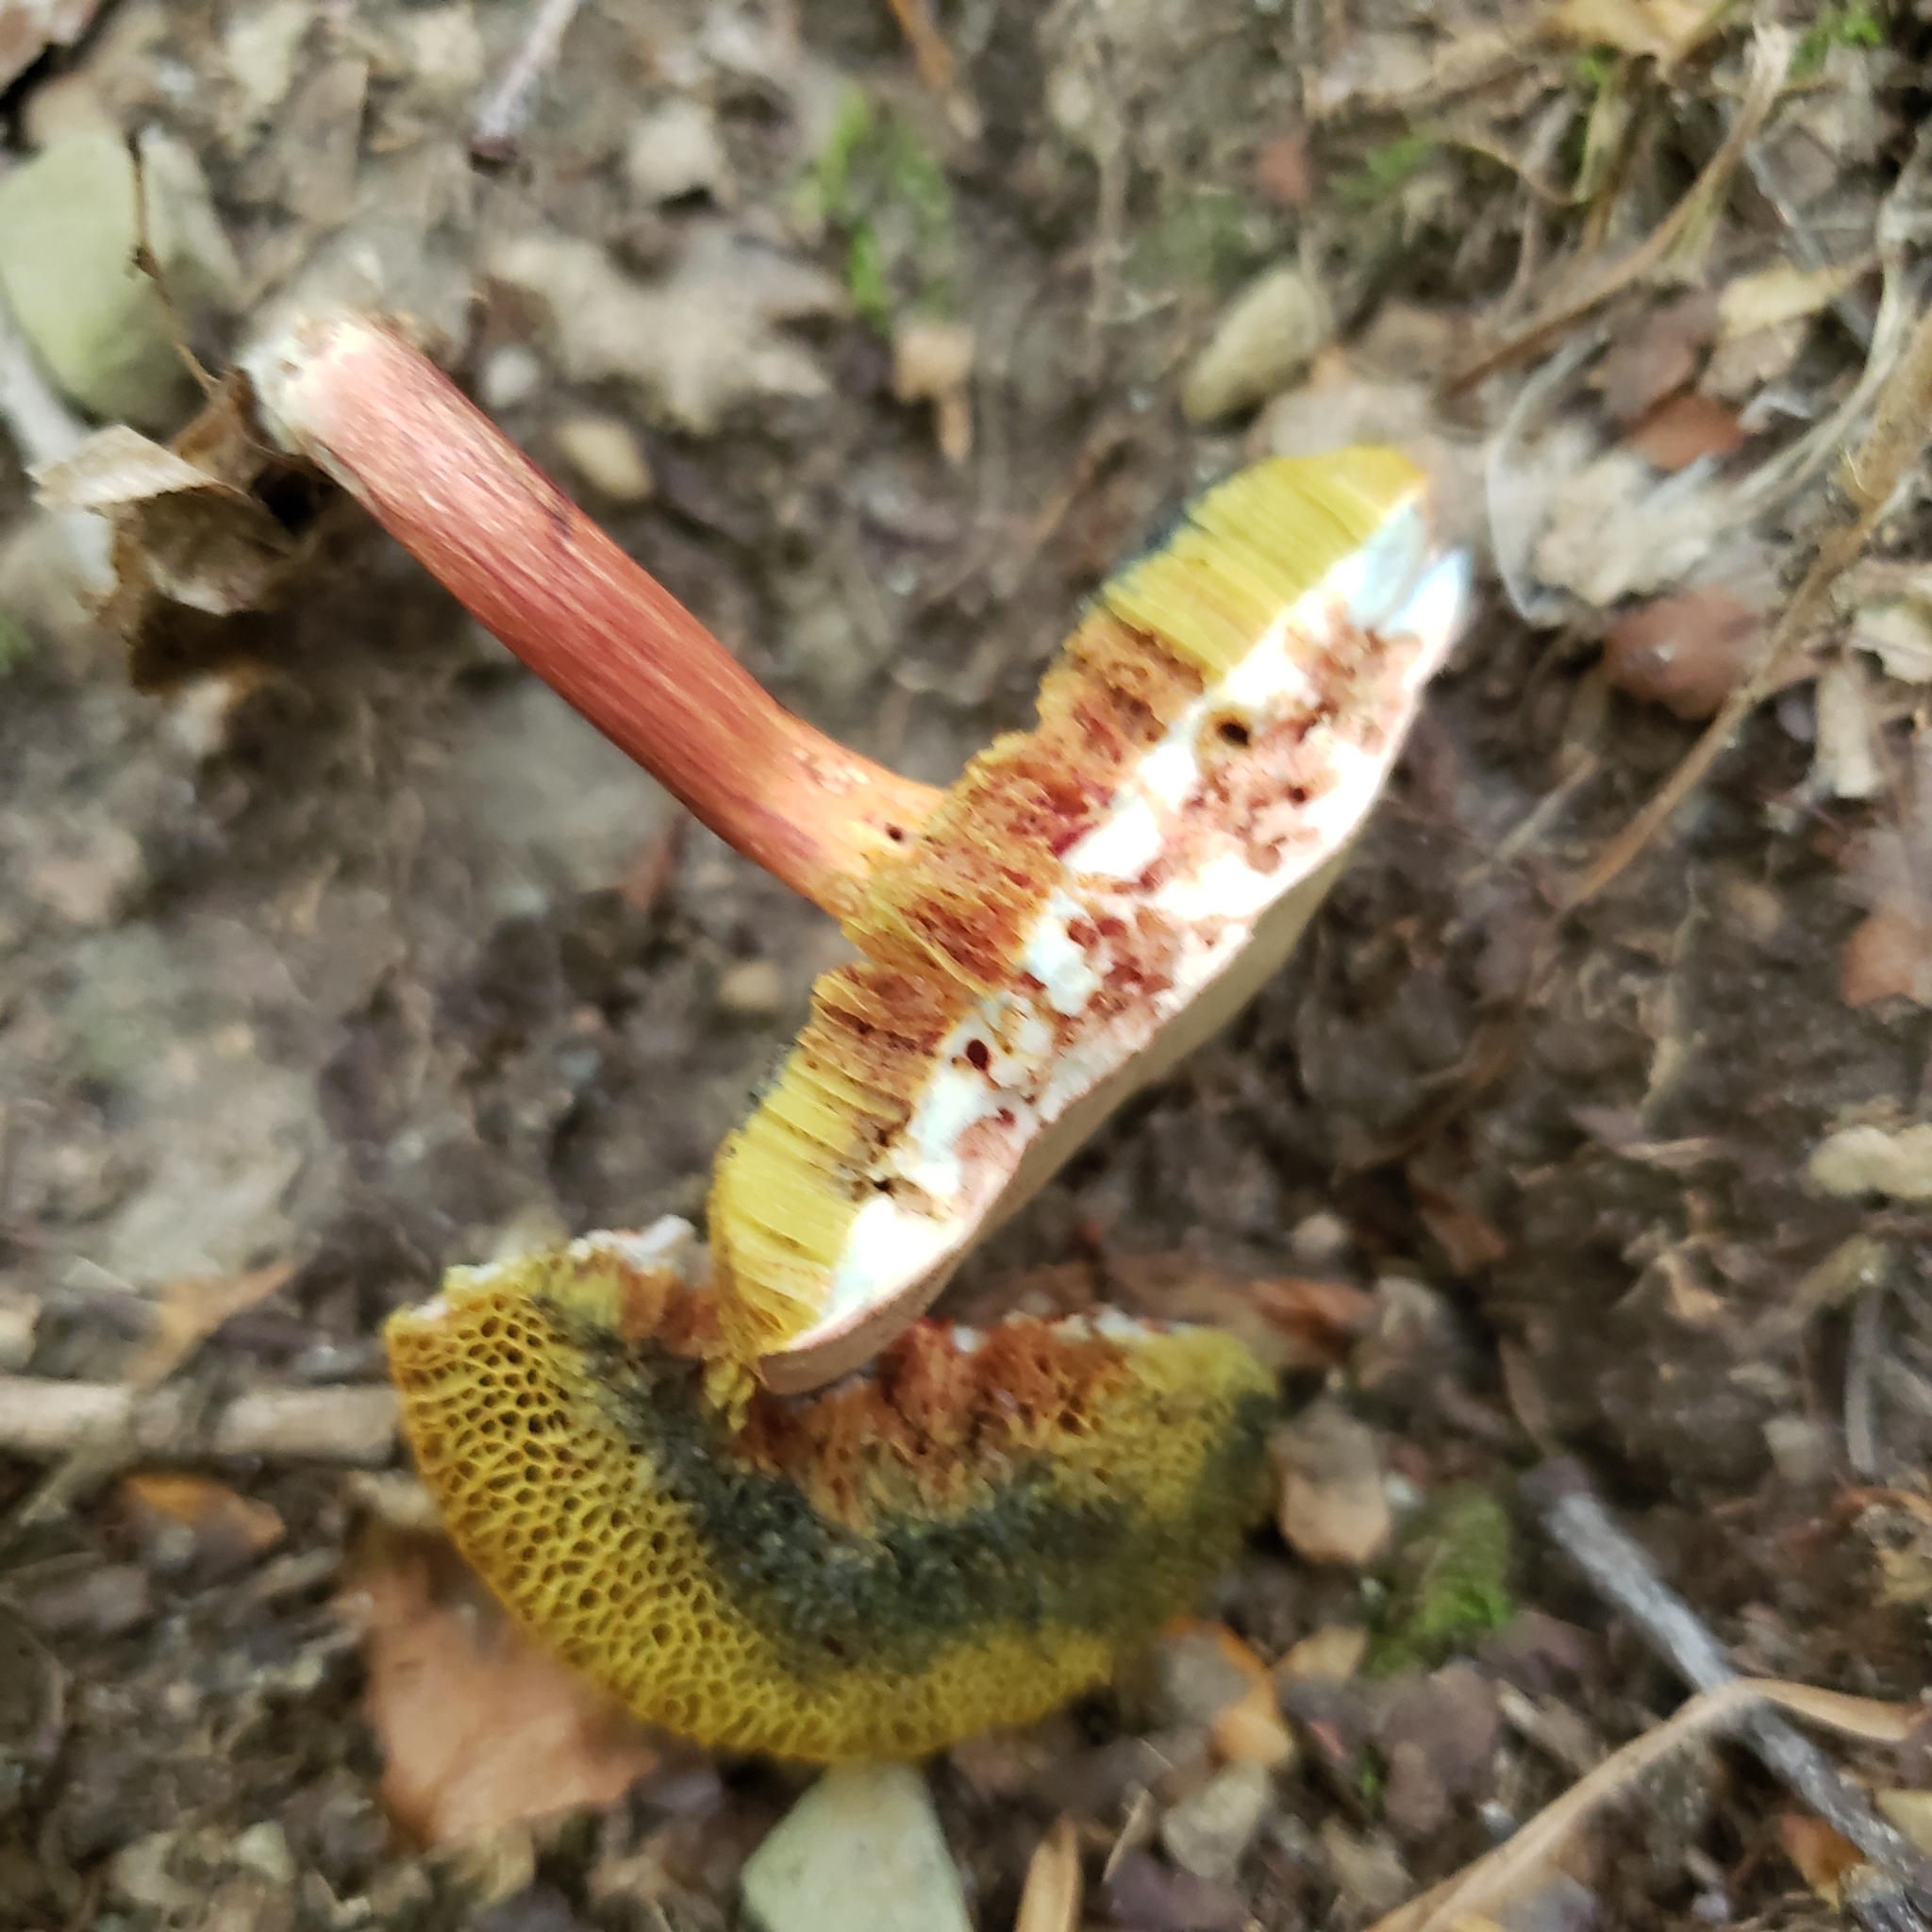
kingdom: Fungi
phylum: Basidiomycota
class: Agaricomycetes
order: Boletales
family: Boletaceae
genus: Xerocomellus
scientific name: Xerocomellus chrysenteron
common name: Red-cracking bolete
